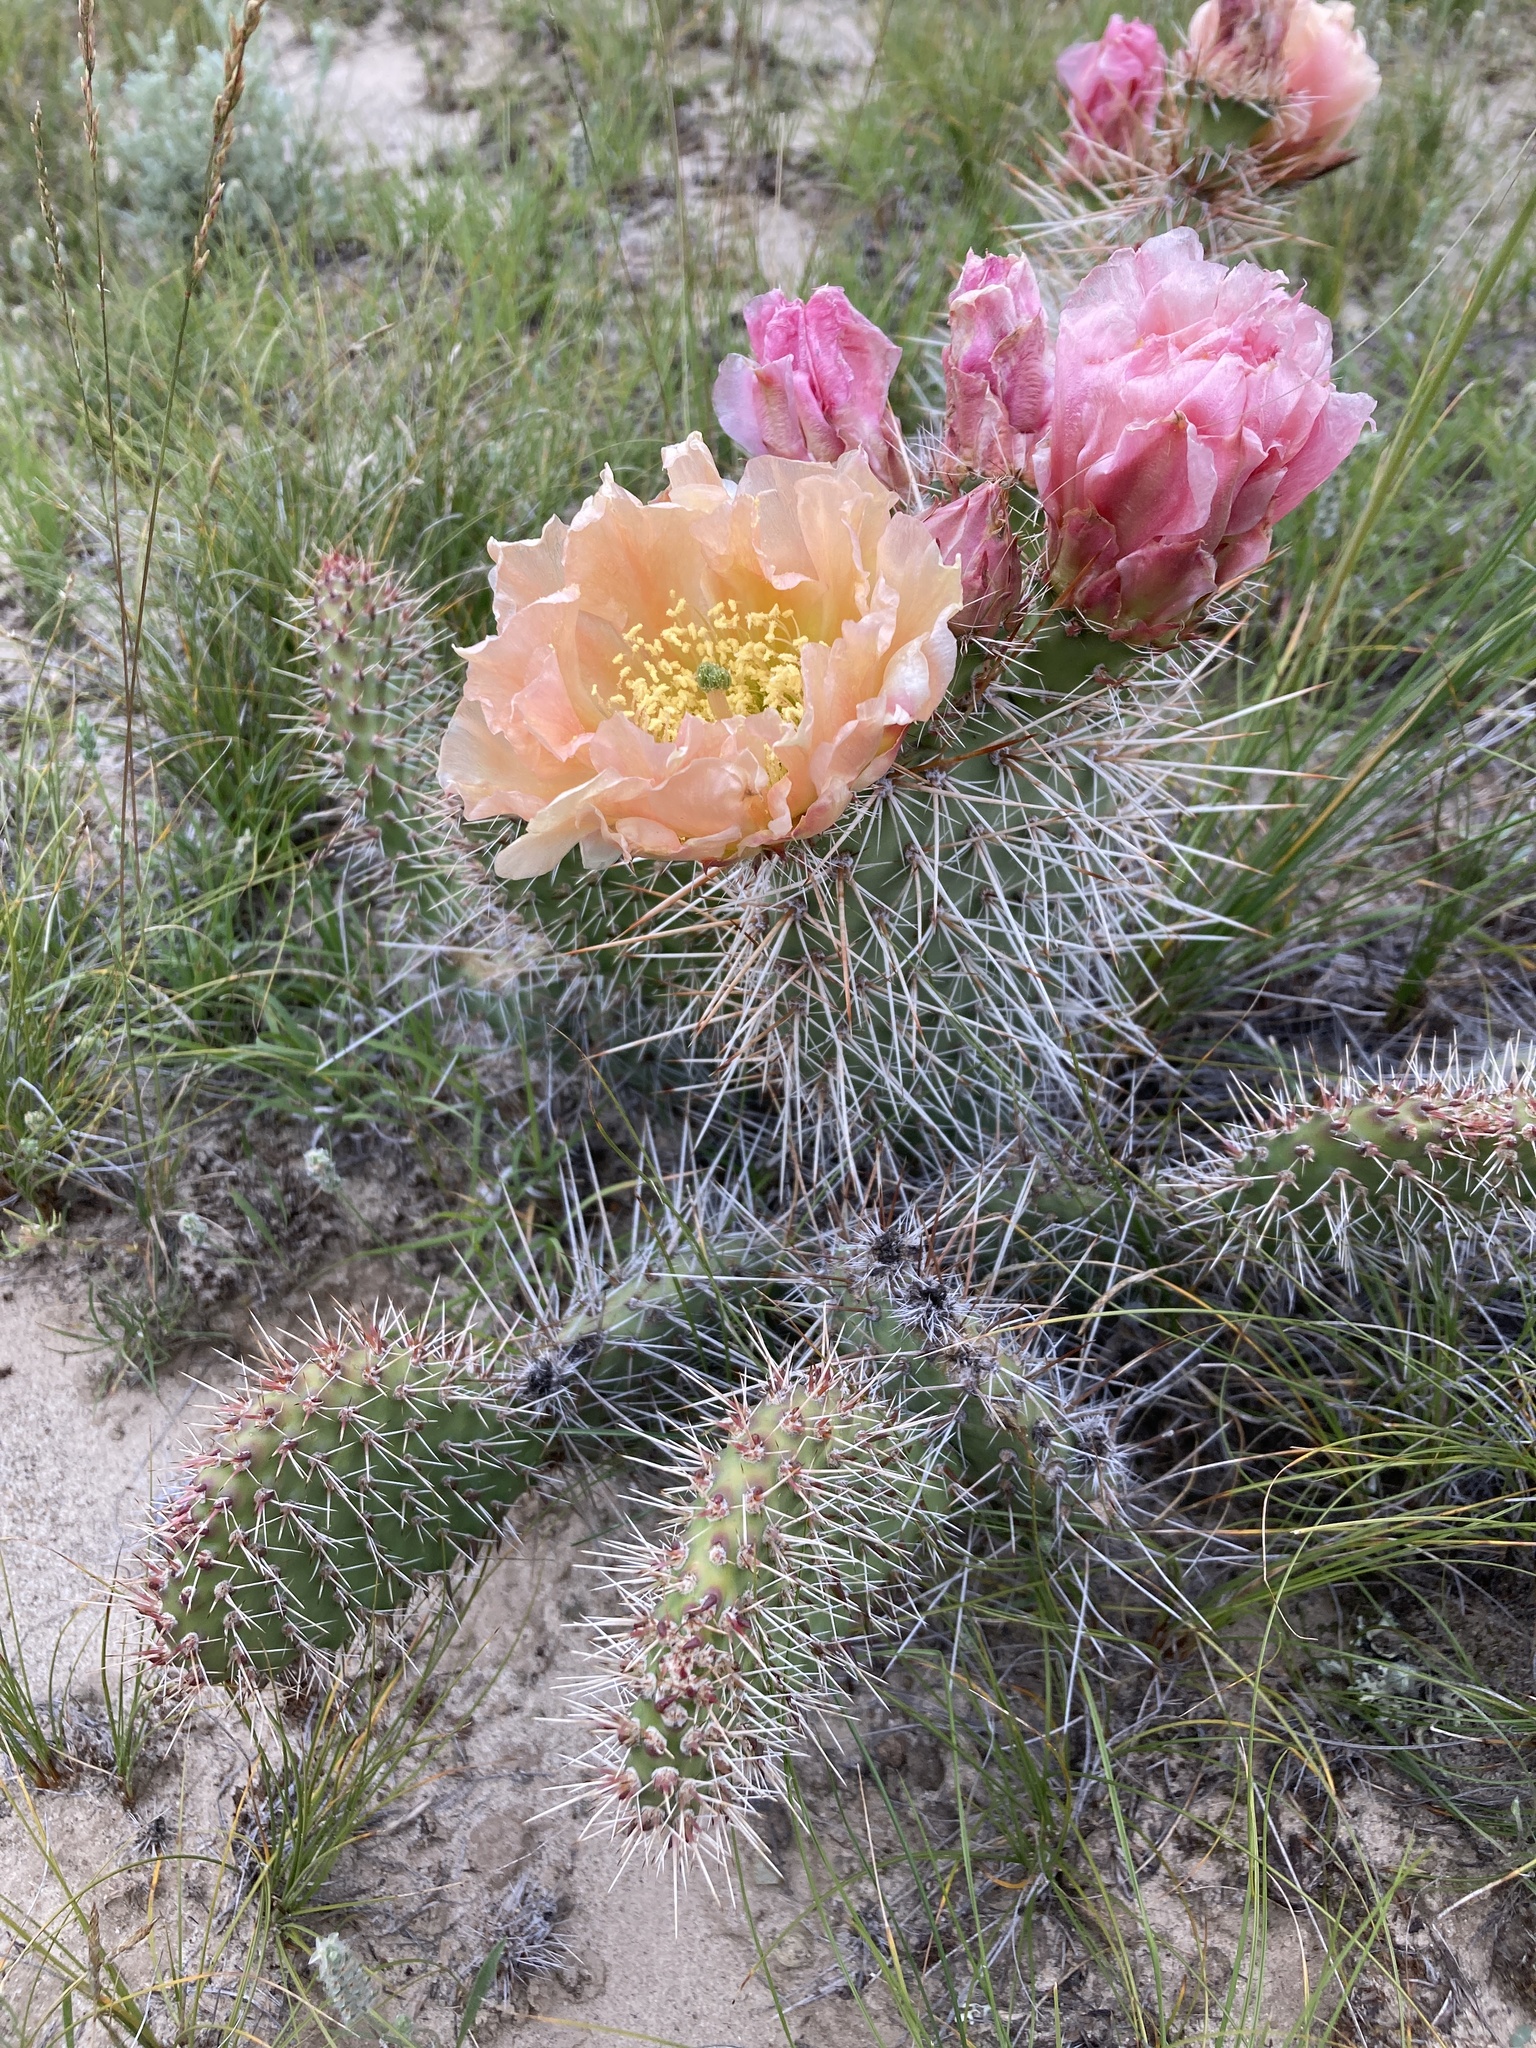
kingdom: Plantae
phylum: Tracheophyta
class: Magnoliopsida
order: Caryophyllales
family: Cactaceae
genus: Opuntia
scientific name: Opuntia polyacantha
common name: Plains prickly-pear
